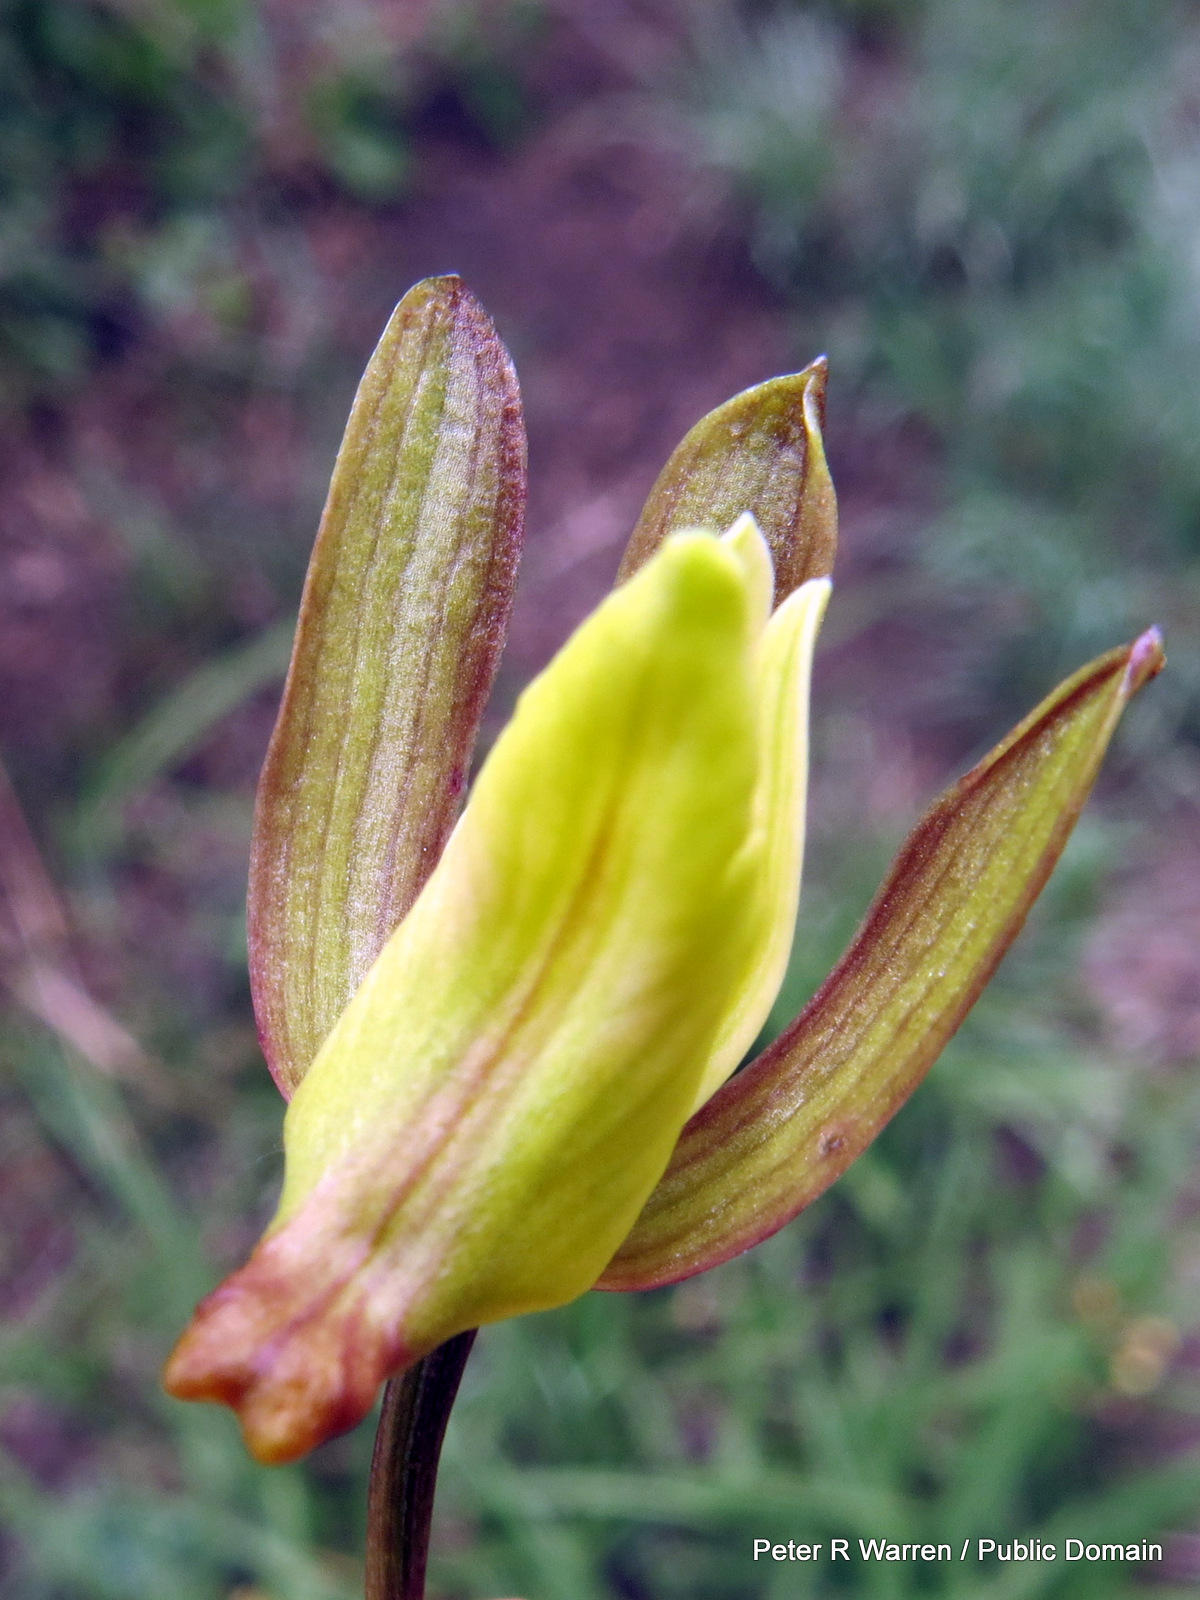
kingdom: Plantae
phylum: Tracheophyta
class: Liliopsida
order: Asparagales
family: Orchidaceae
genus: Eulophia
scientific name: Eulophia hereroensis
